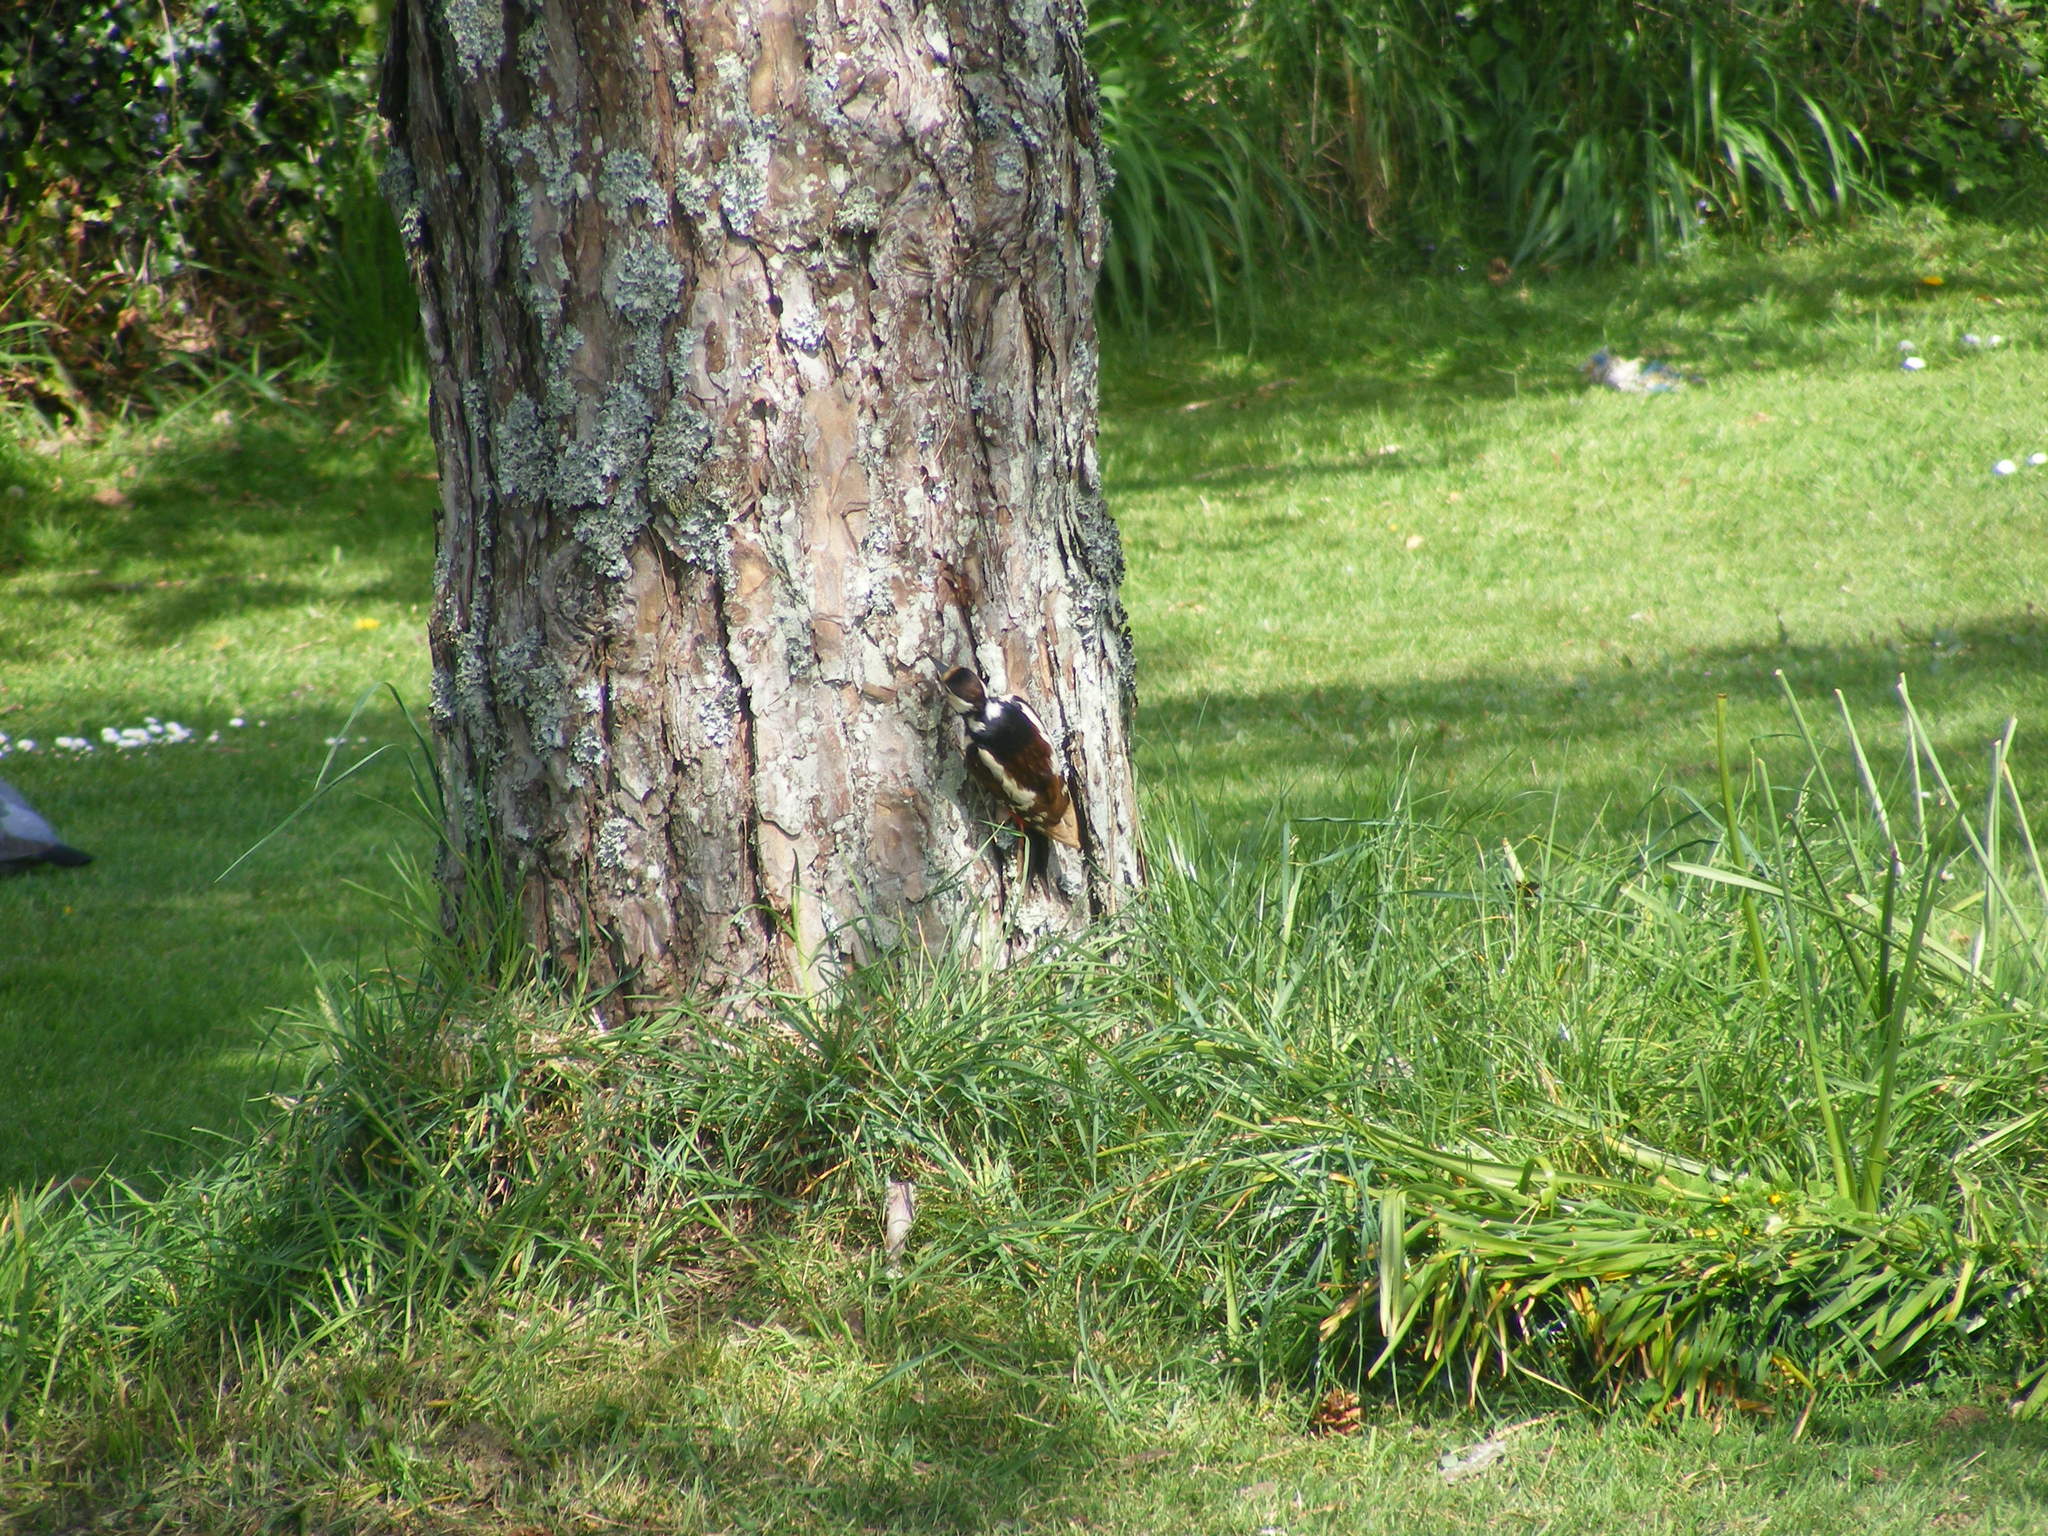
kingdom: Animalia
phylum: Chordata
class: Aves
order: Piciformes
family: Picidae
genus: Dendrocopos
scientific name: Dendrocopos major
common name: Great spotted woodpecker
